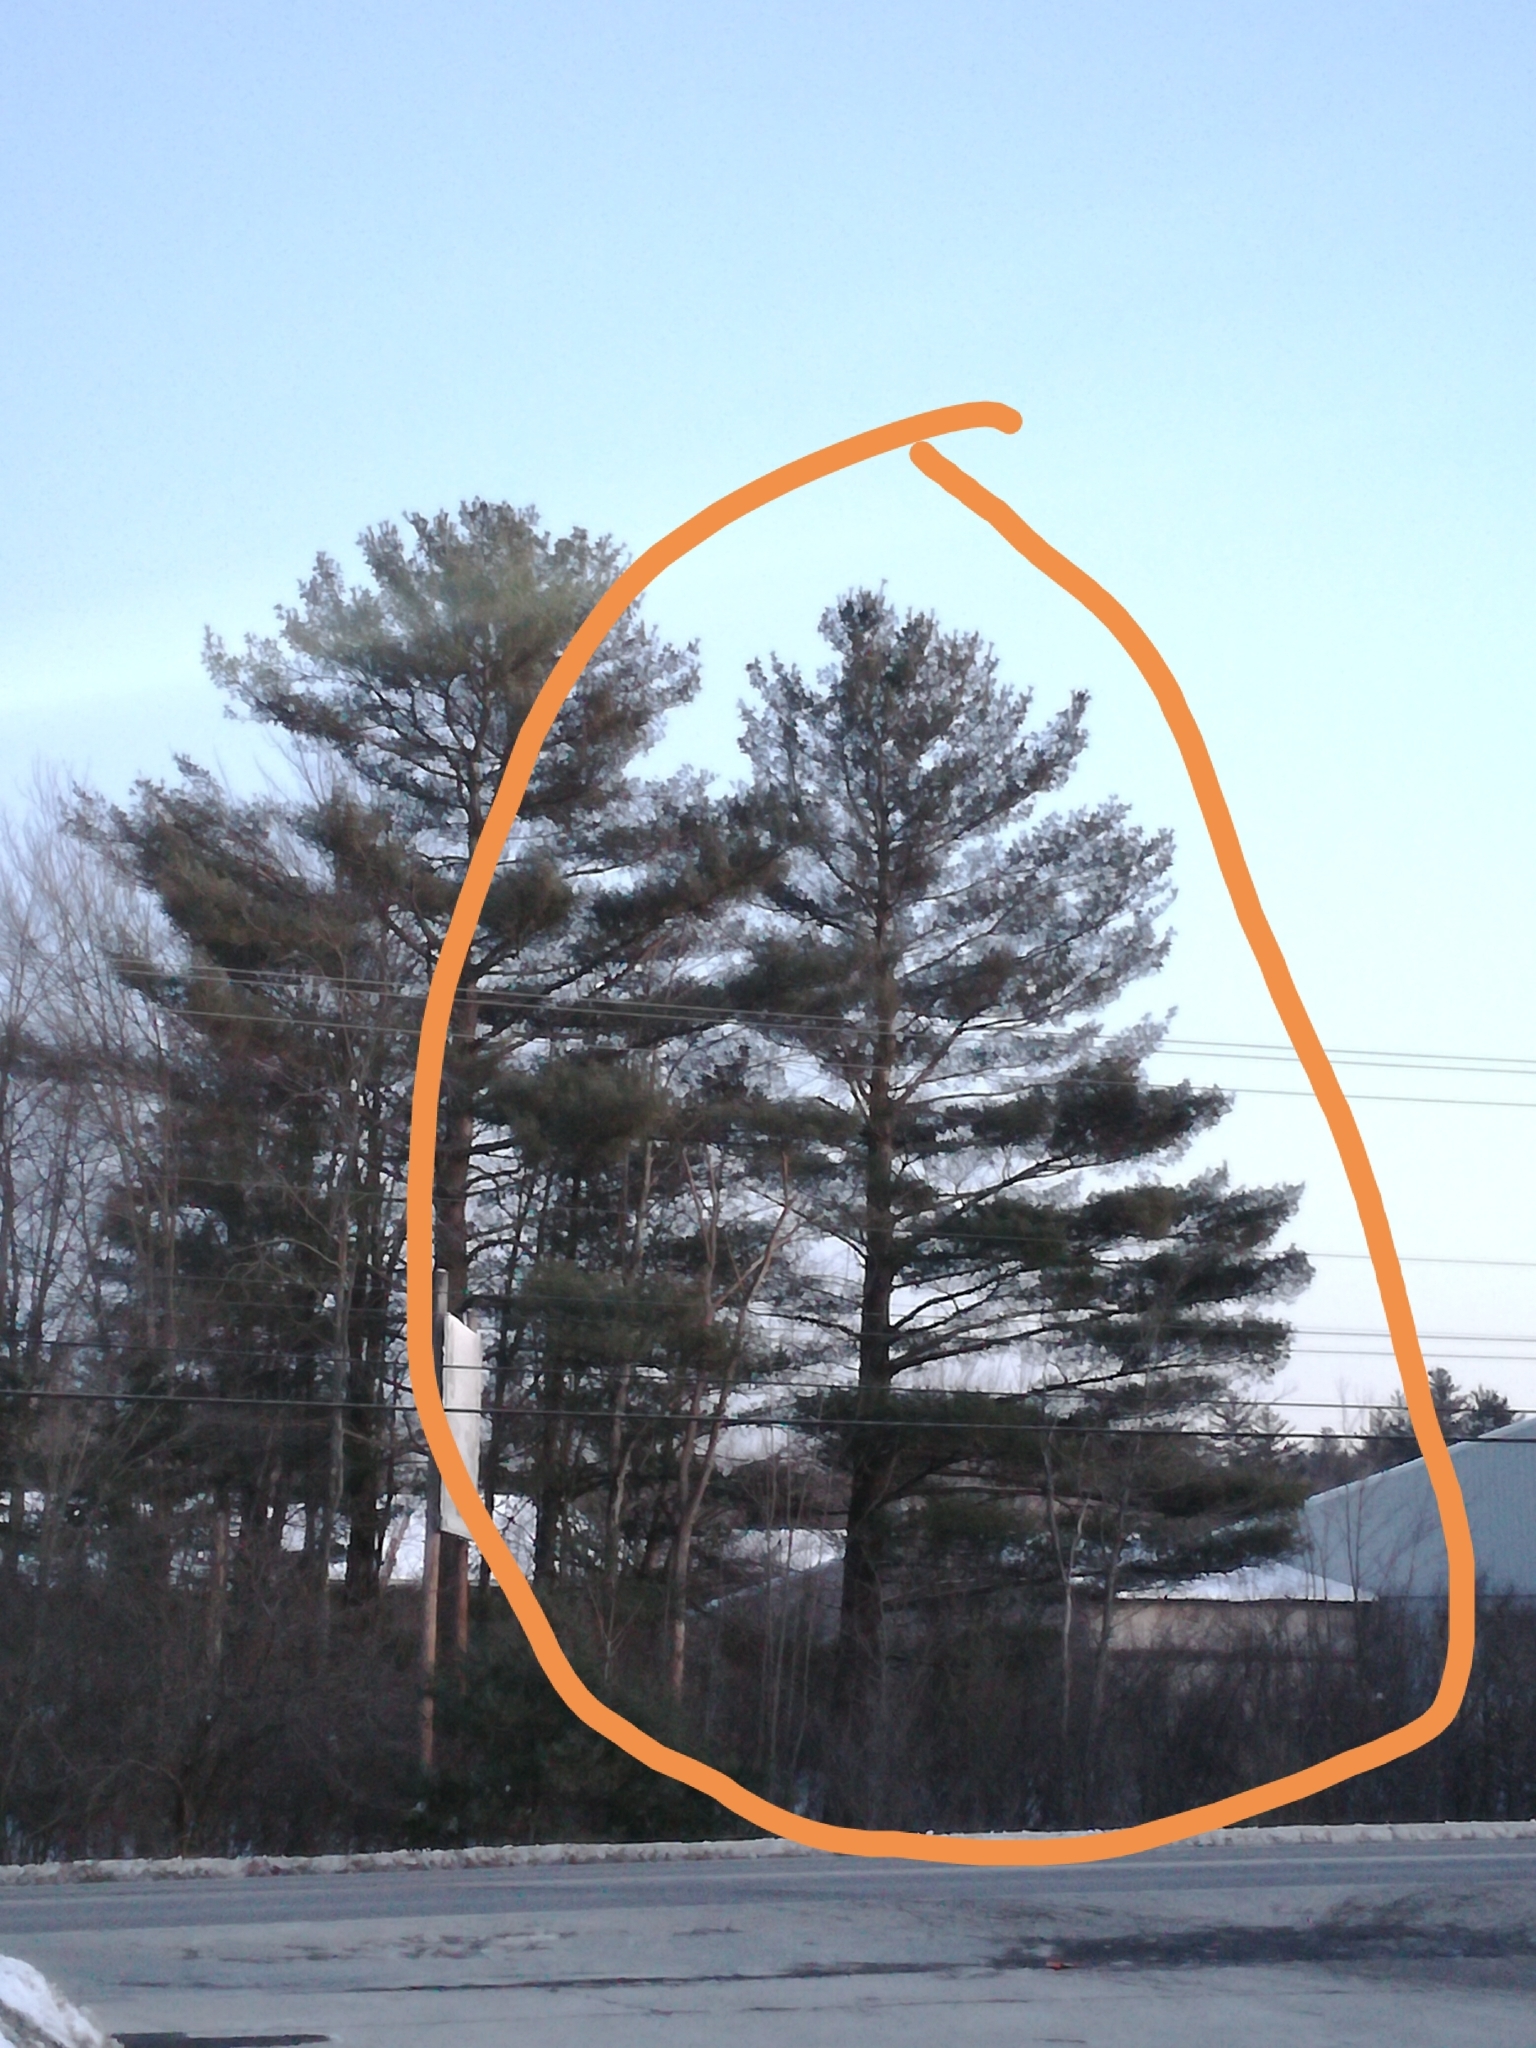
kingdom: Plantae
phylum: Tracheophyta
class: Pinopsida
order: Pinales
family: Pinaceae
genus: Pinus
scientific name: Pinus strobus
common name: Weymouth pine
